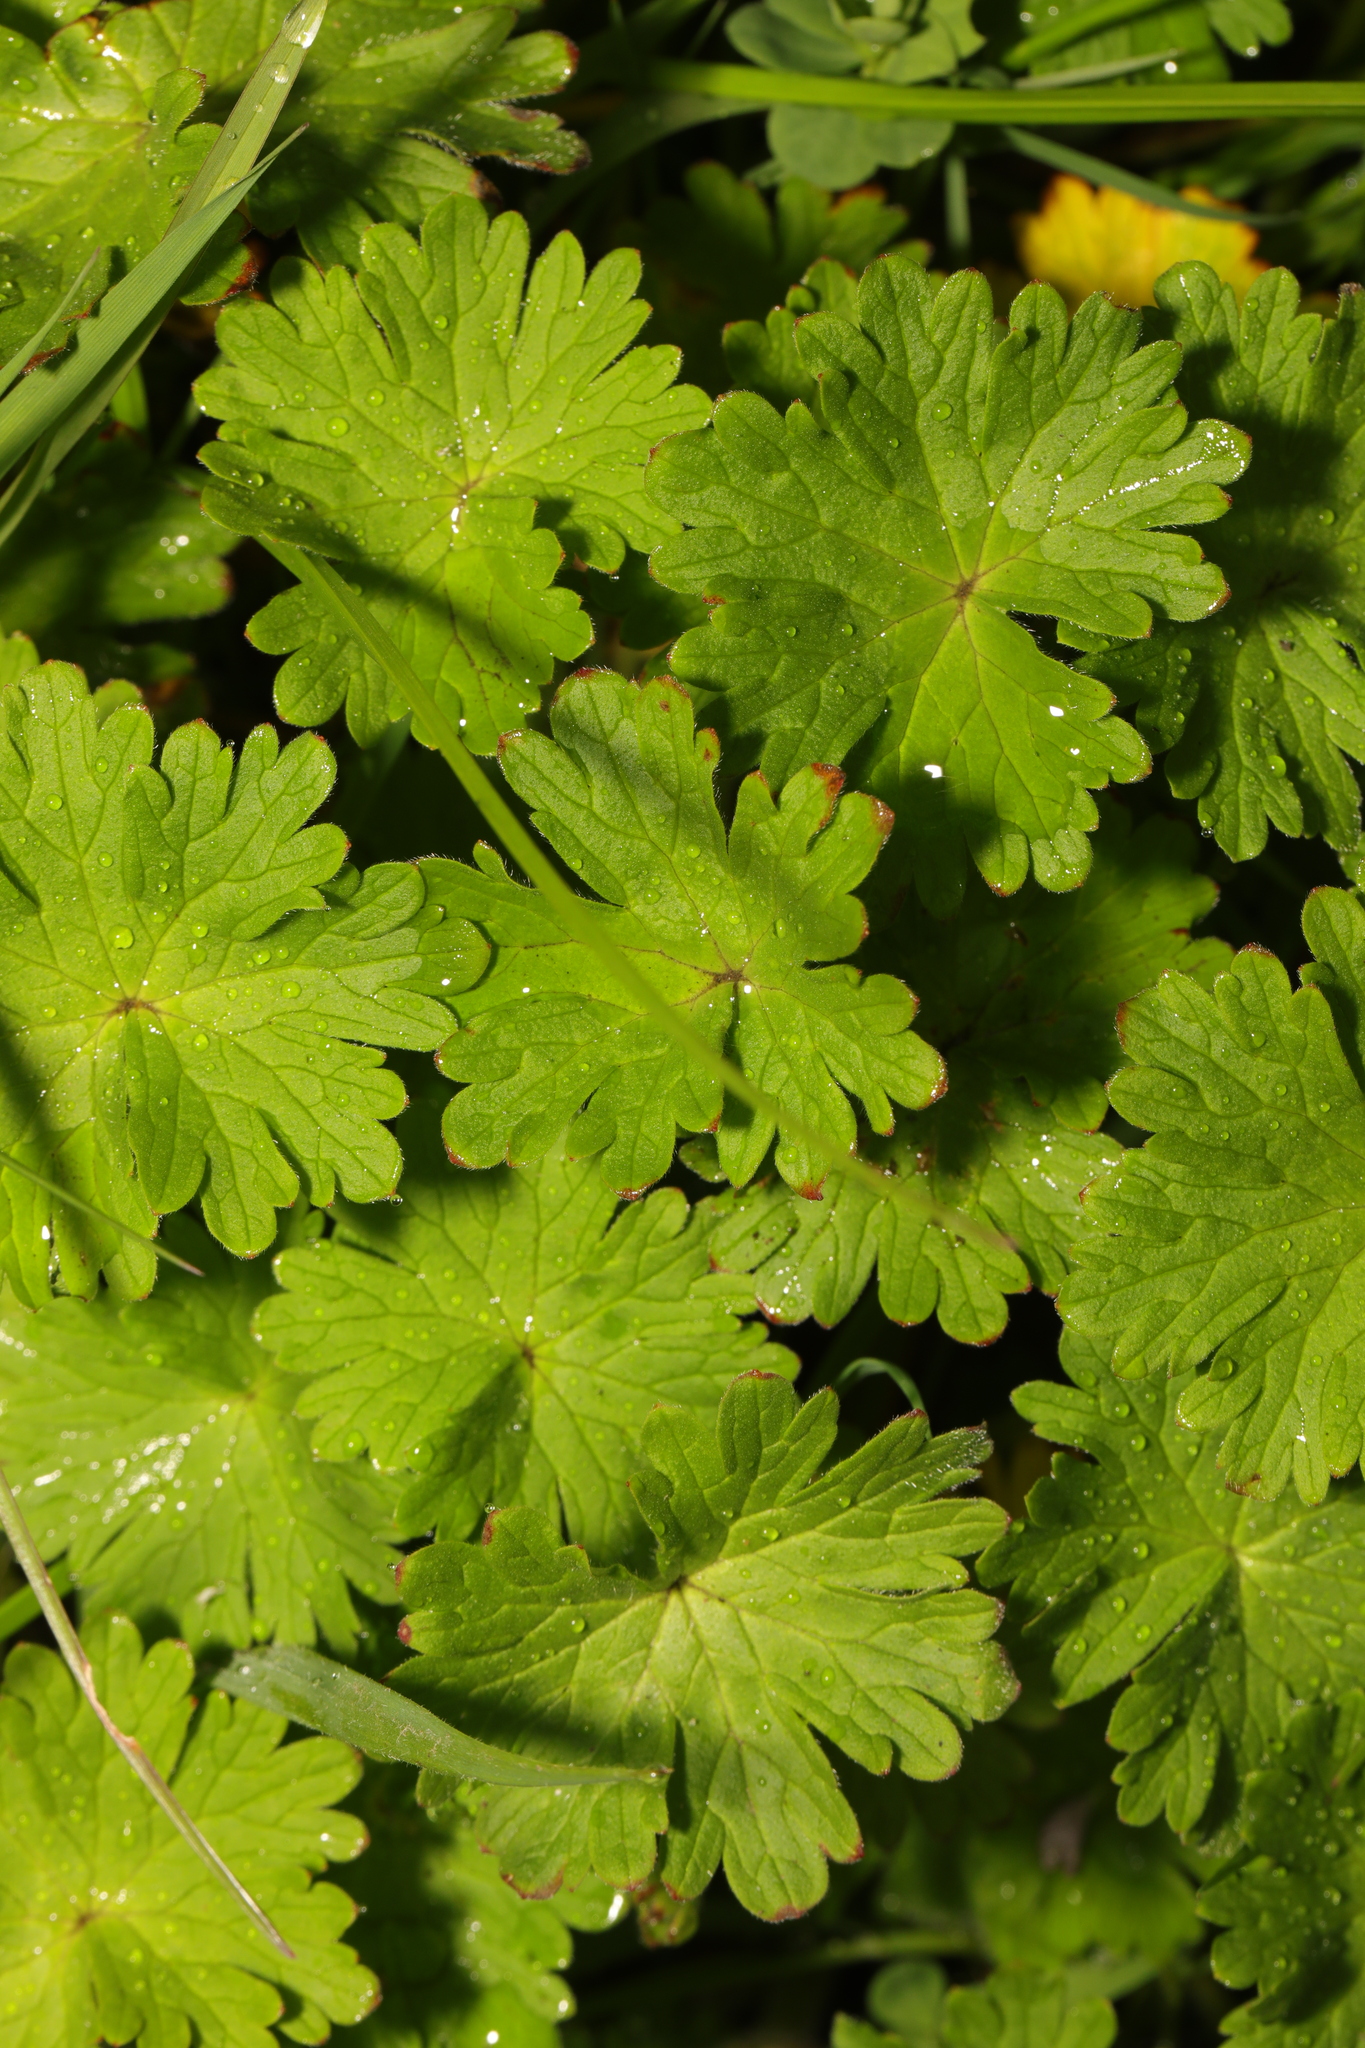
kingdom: Plantae
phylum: Tracheophyta
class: Magnoliopsida
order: Geraniales
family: Geraniaceae
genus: Geranium
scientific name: Geranium molle
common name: Dove's-foot crane's-bill
